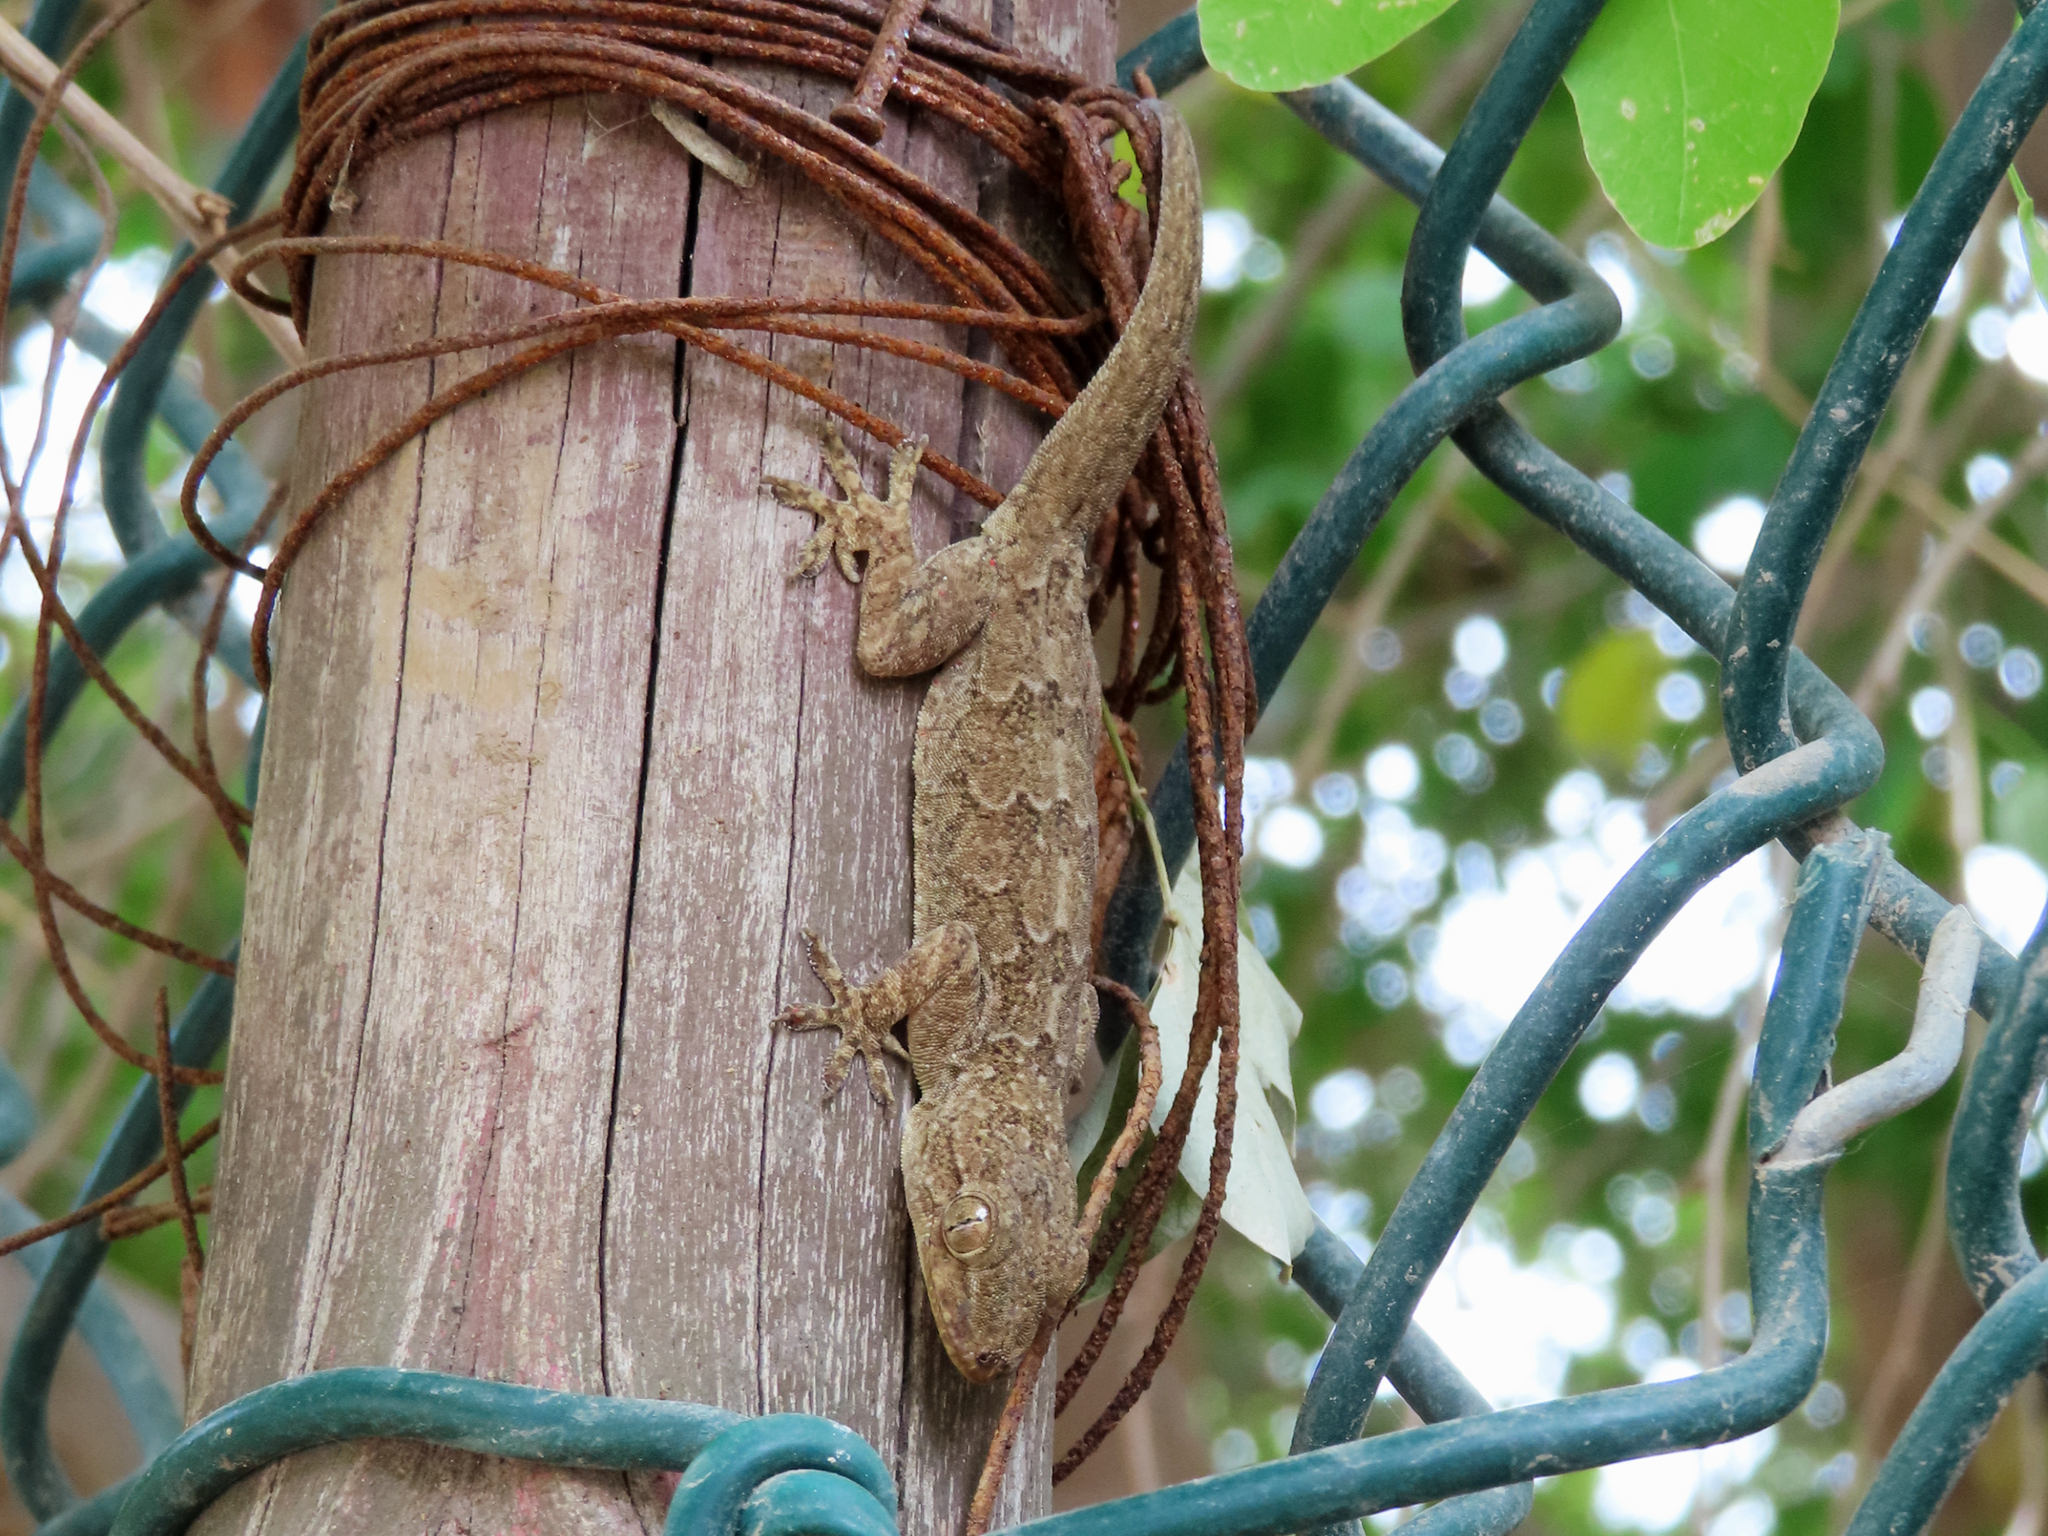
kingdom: Animalia
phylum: Chordata
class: Squamata
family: Gekkonidae
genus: Hemidactylus
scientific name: Hemidactylus flaviviridis
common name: Northern house gecko
